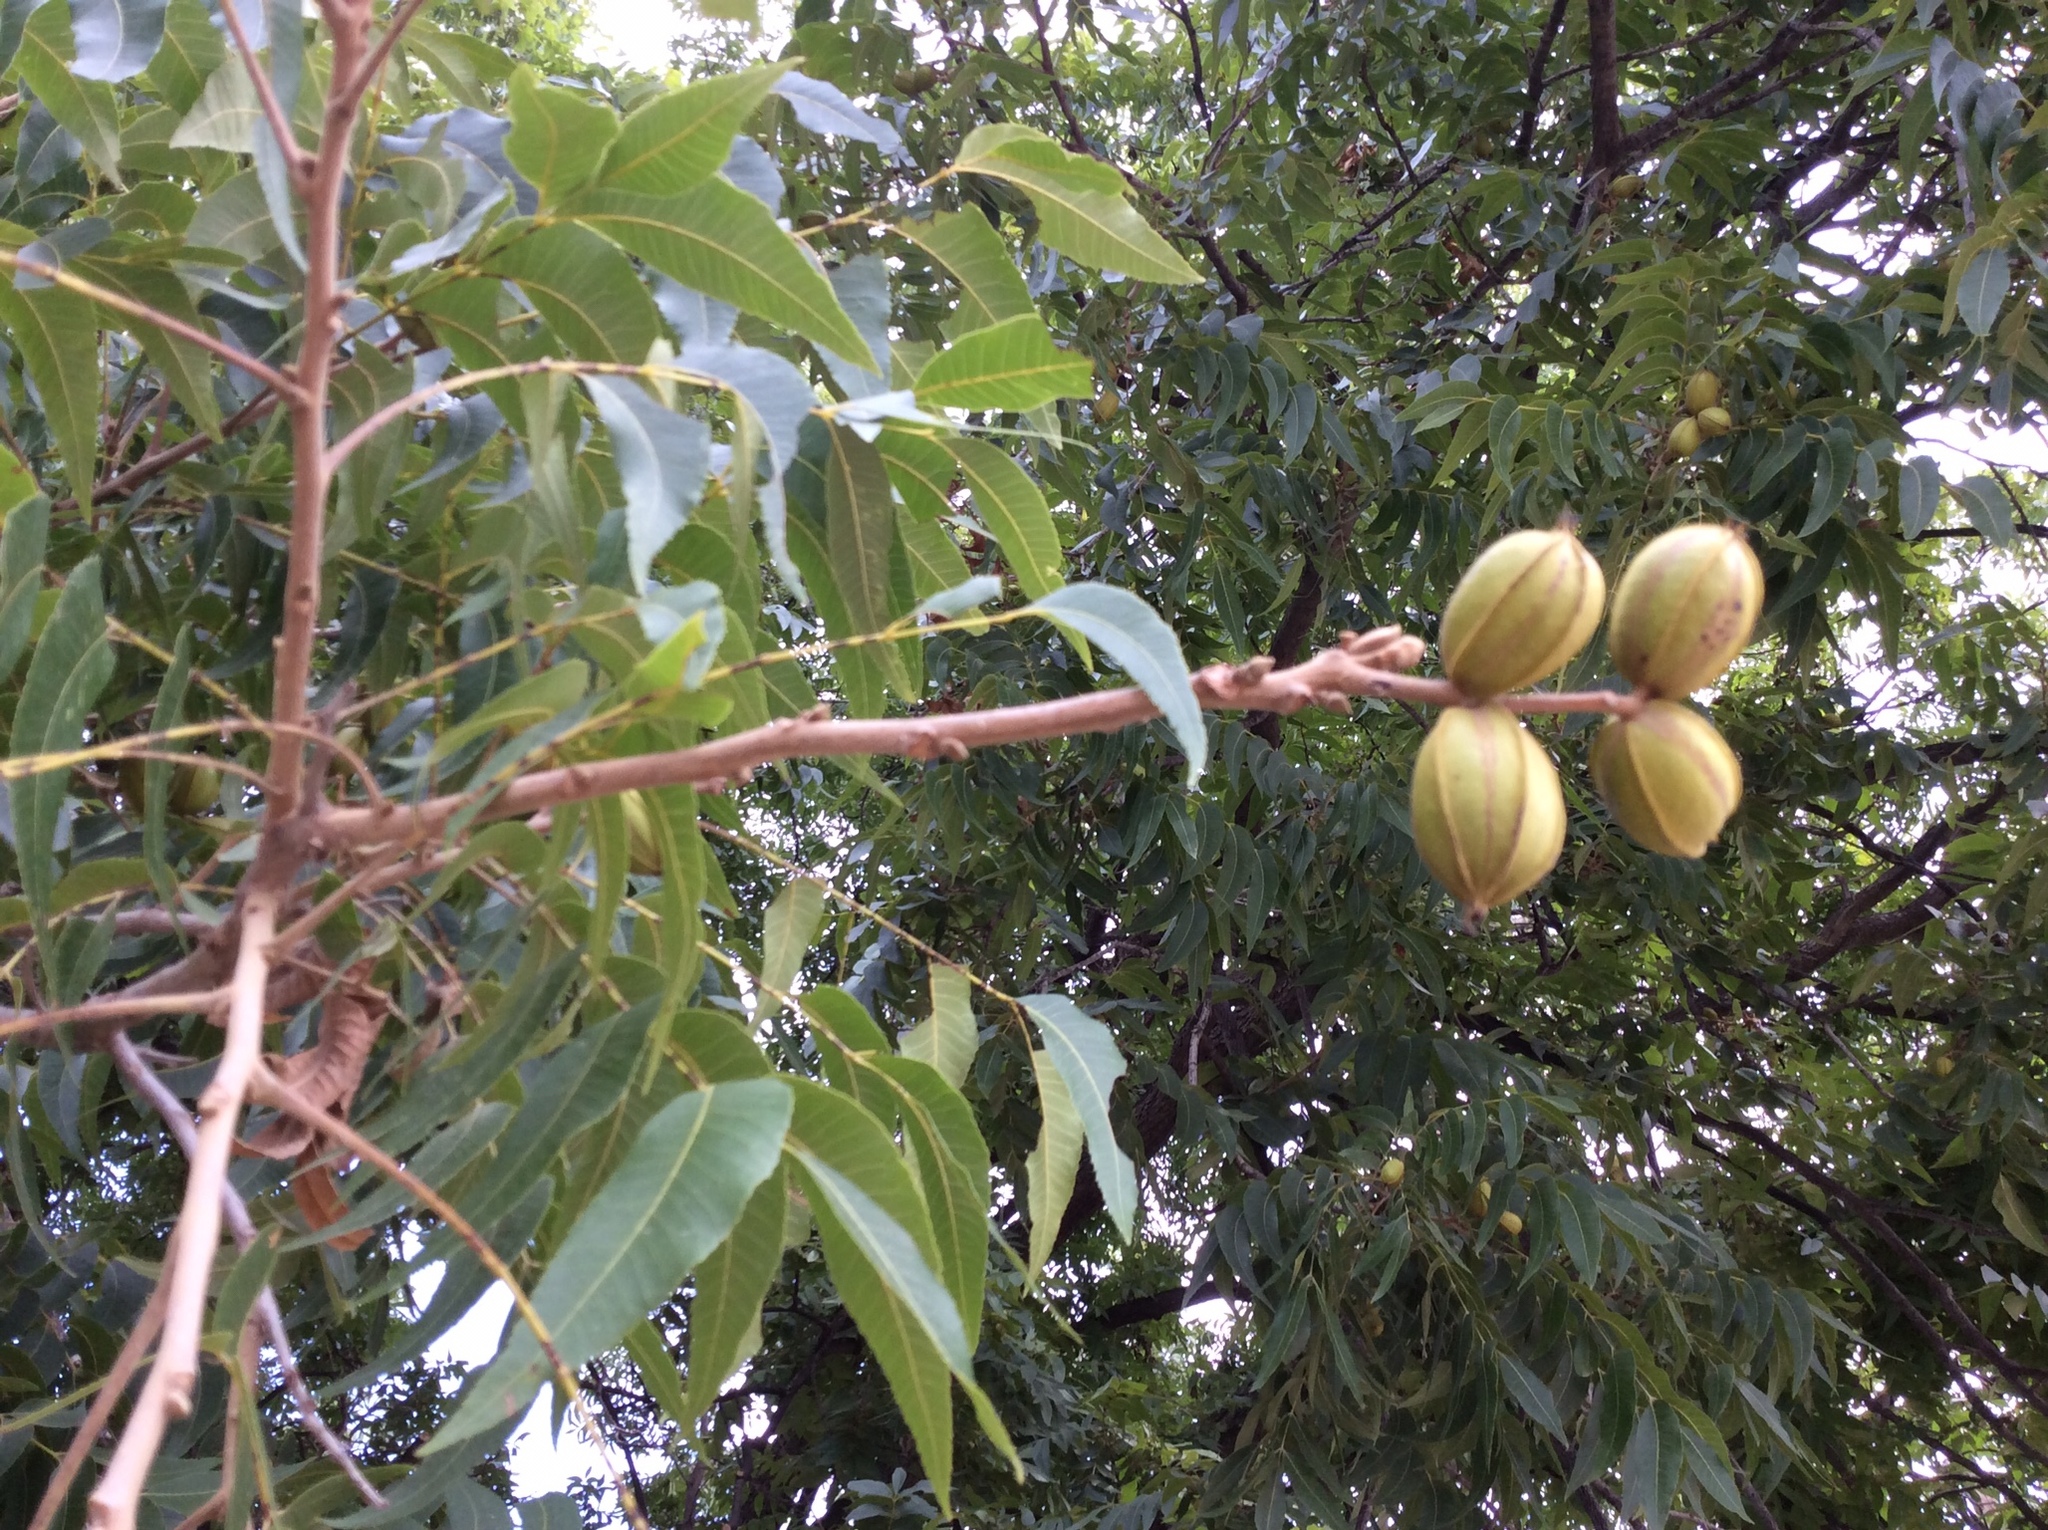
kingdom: Plantae
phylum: Tracheophyta
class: Magnoliopsida
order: Fagales
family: Juglandaceae
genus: Carya
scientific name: Carya illinoinensis
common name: Pecan
